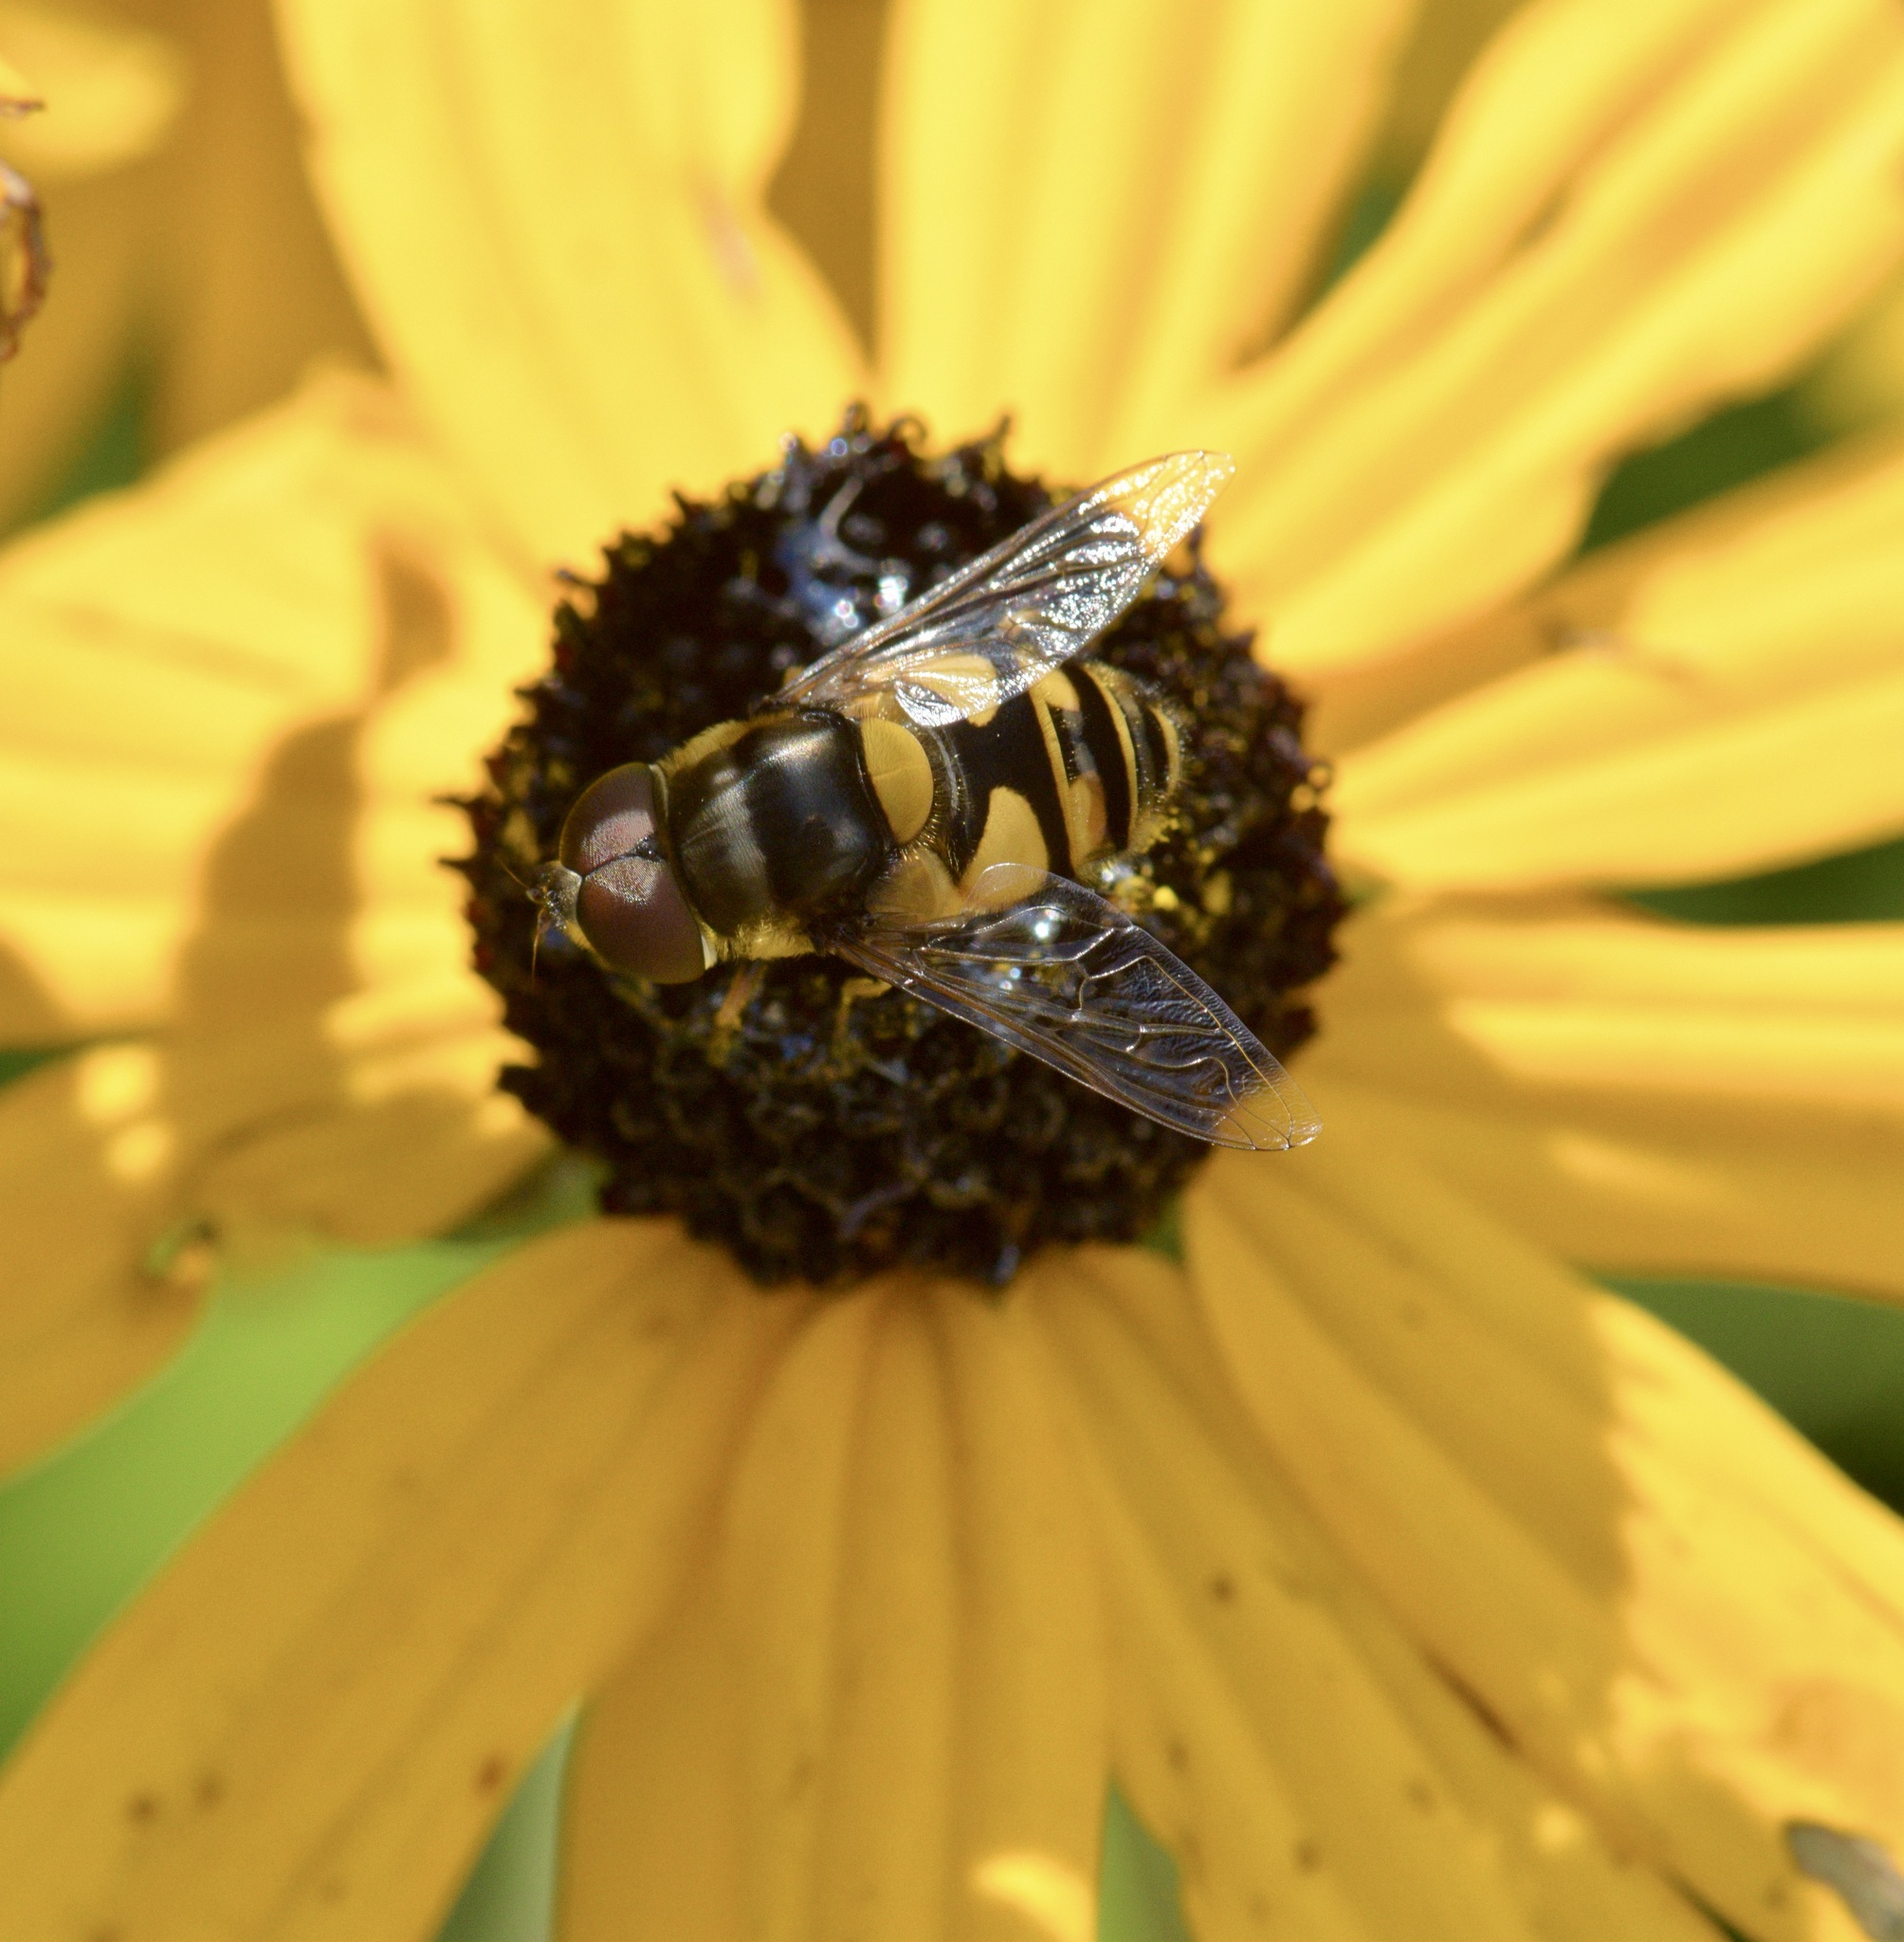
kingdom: Animalia
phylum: Arthropoda
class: Insecta
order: Diptera
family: Syrphidae
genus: Eristalis
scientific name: Eristalis transversa
